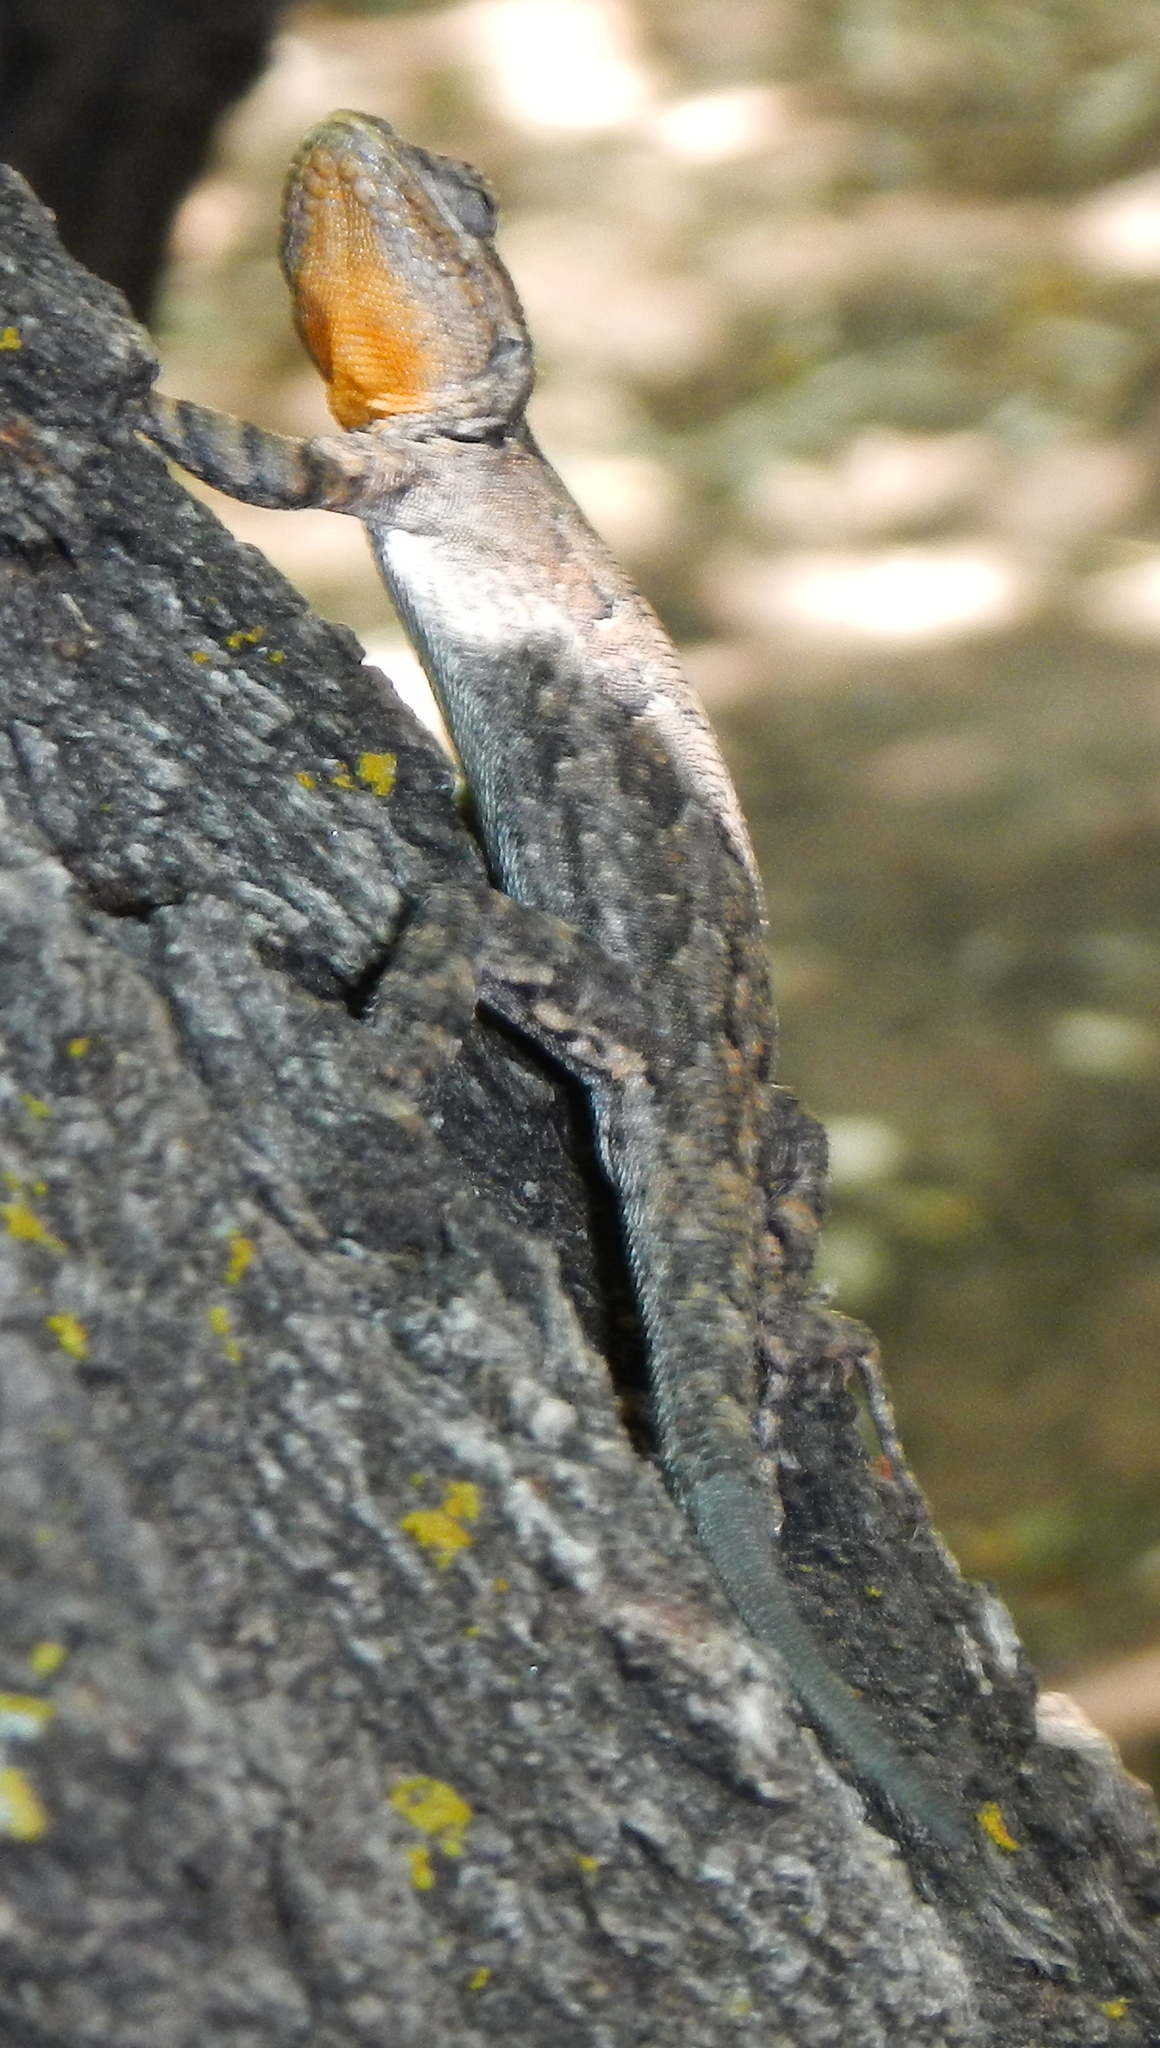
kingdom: Animalia
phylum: Chordata
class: Squamata
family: Phrynosomatidae
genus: Urosaurus
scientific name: Urosaurus ornatus
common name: Ornate tree lizard
